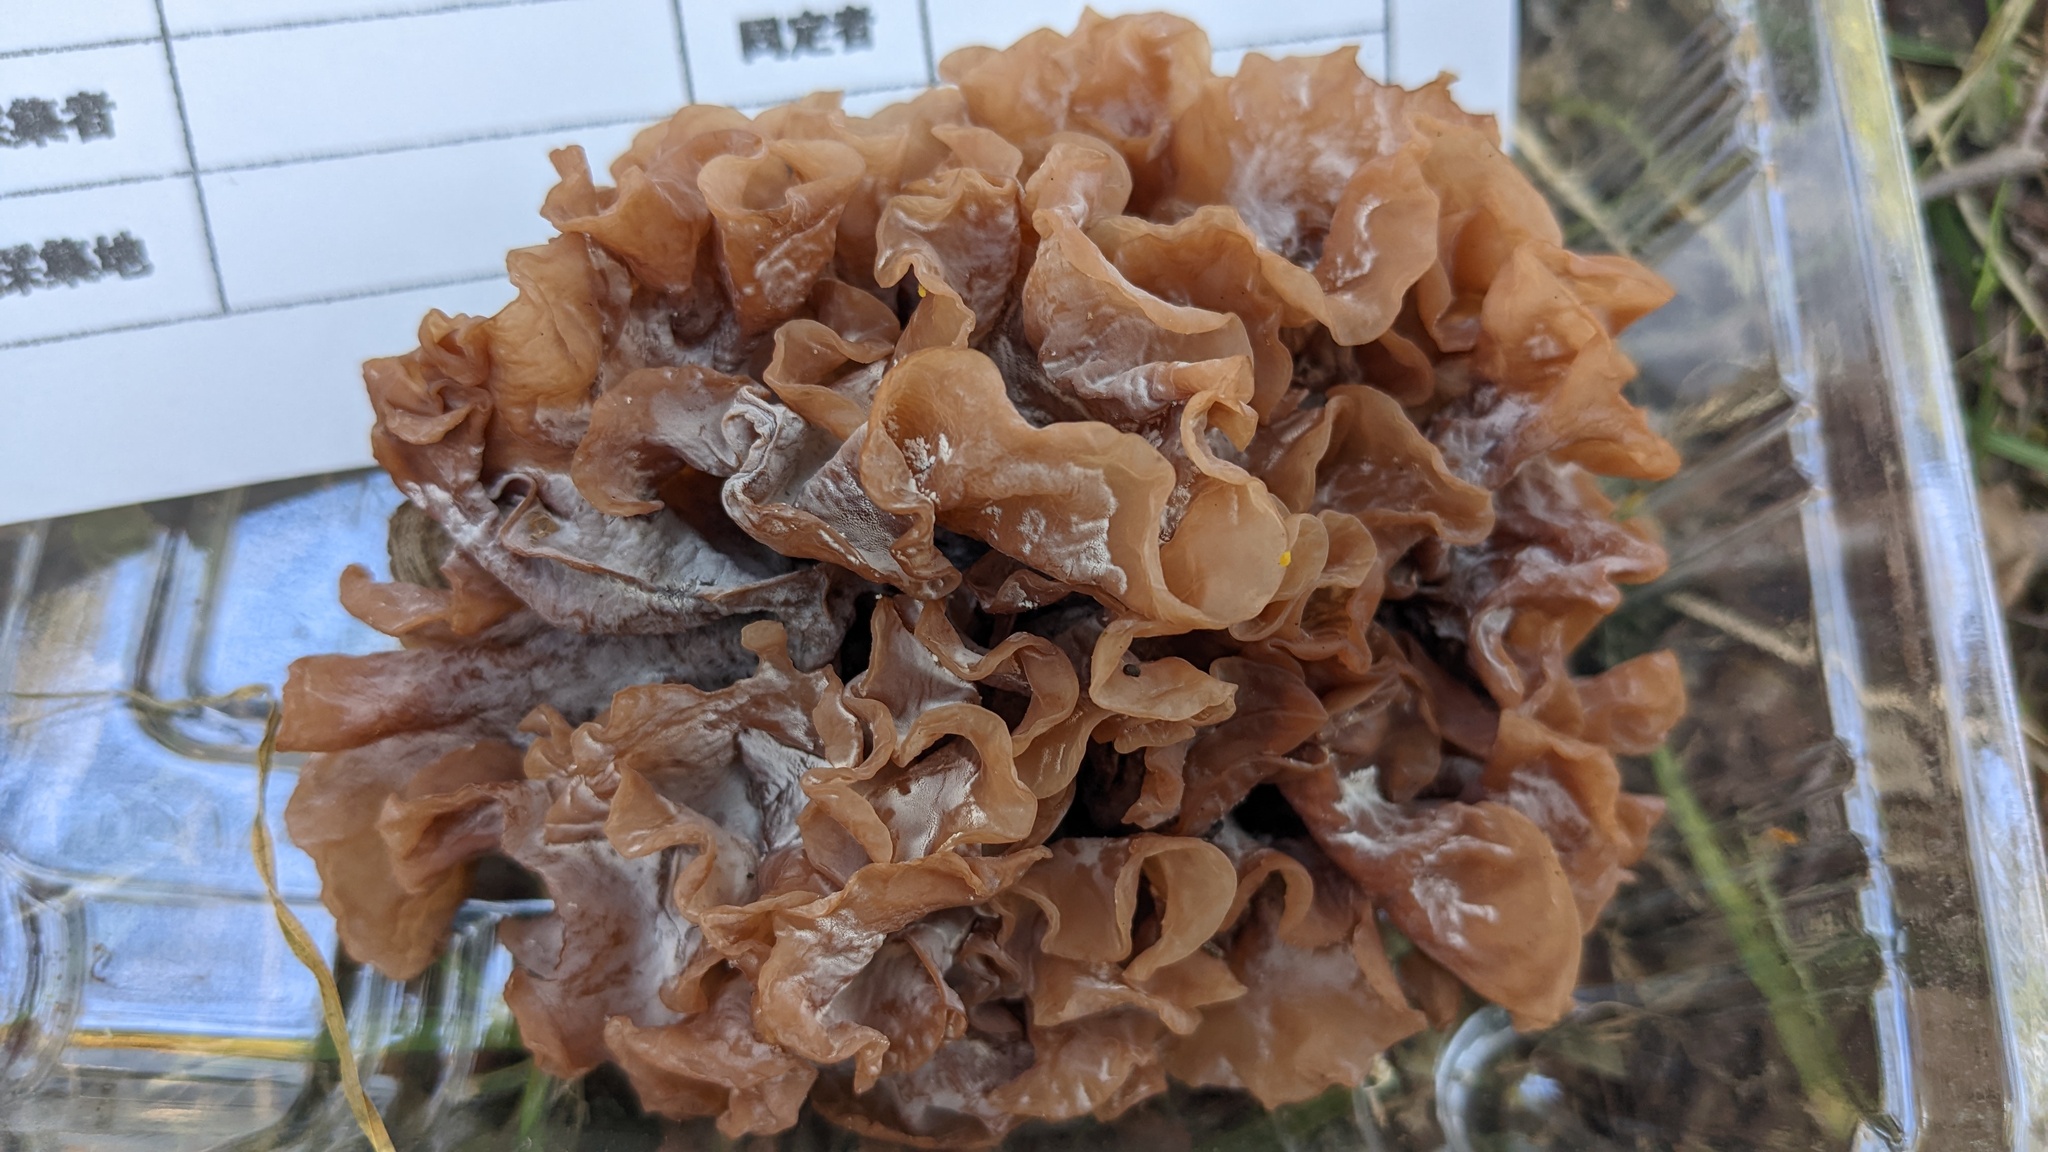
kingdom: Fungi
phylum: Basidiomycota
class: Tremellomycetes
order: Tremellales
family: Tremellaceae
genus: Phaeotremella
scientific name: Phaeotremella foliacea
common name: Leafy brain
